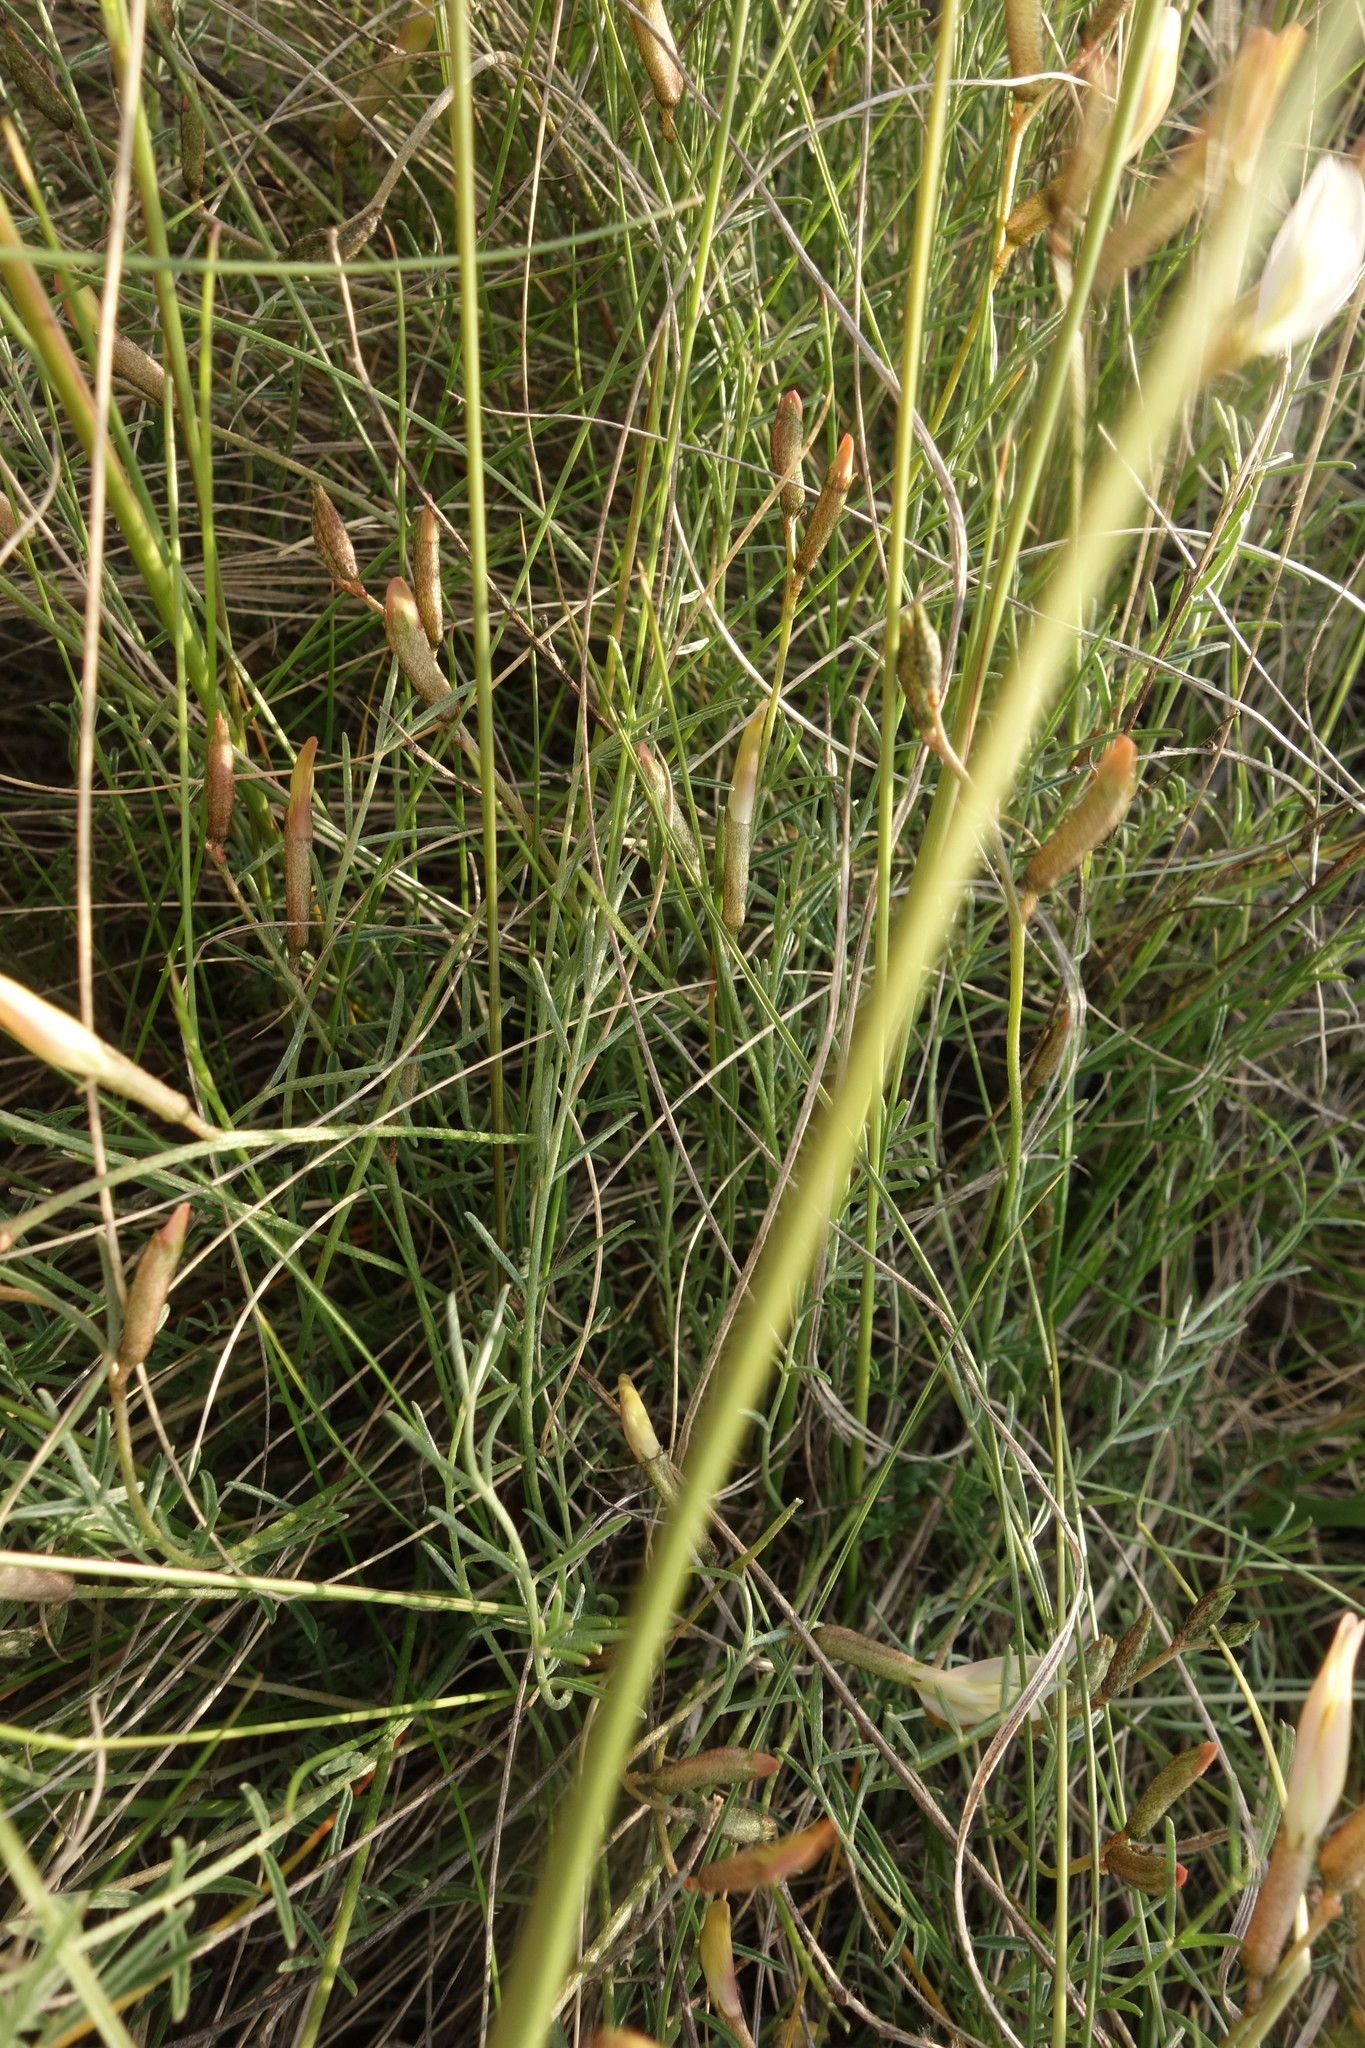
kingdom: Plantae
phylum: Tracheophyta
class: Magnoliopsida
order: Fabales
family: Fabaceae
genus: Astragalus
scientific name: Astragalus ucrainicus
